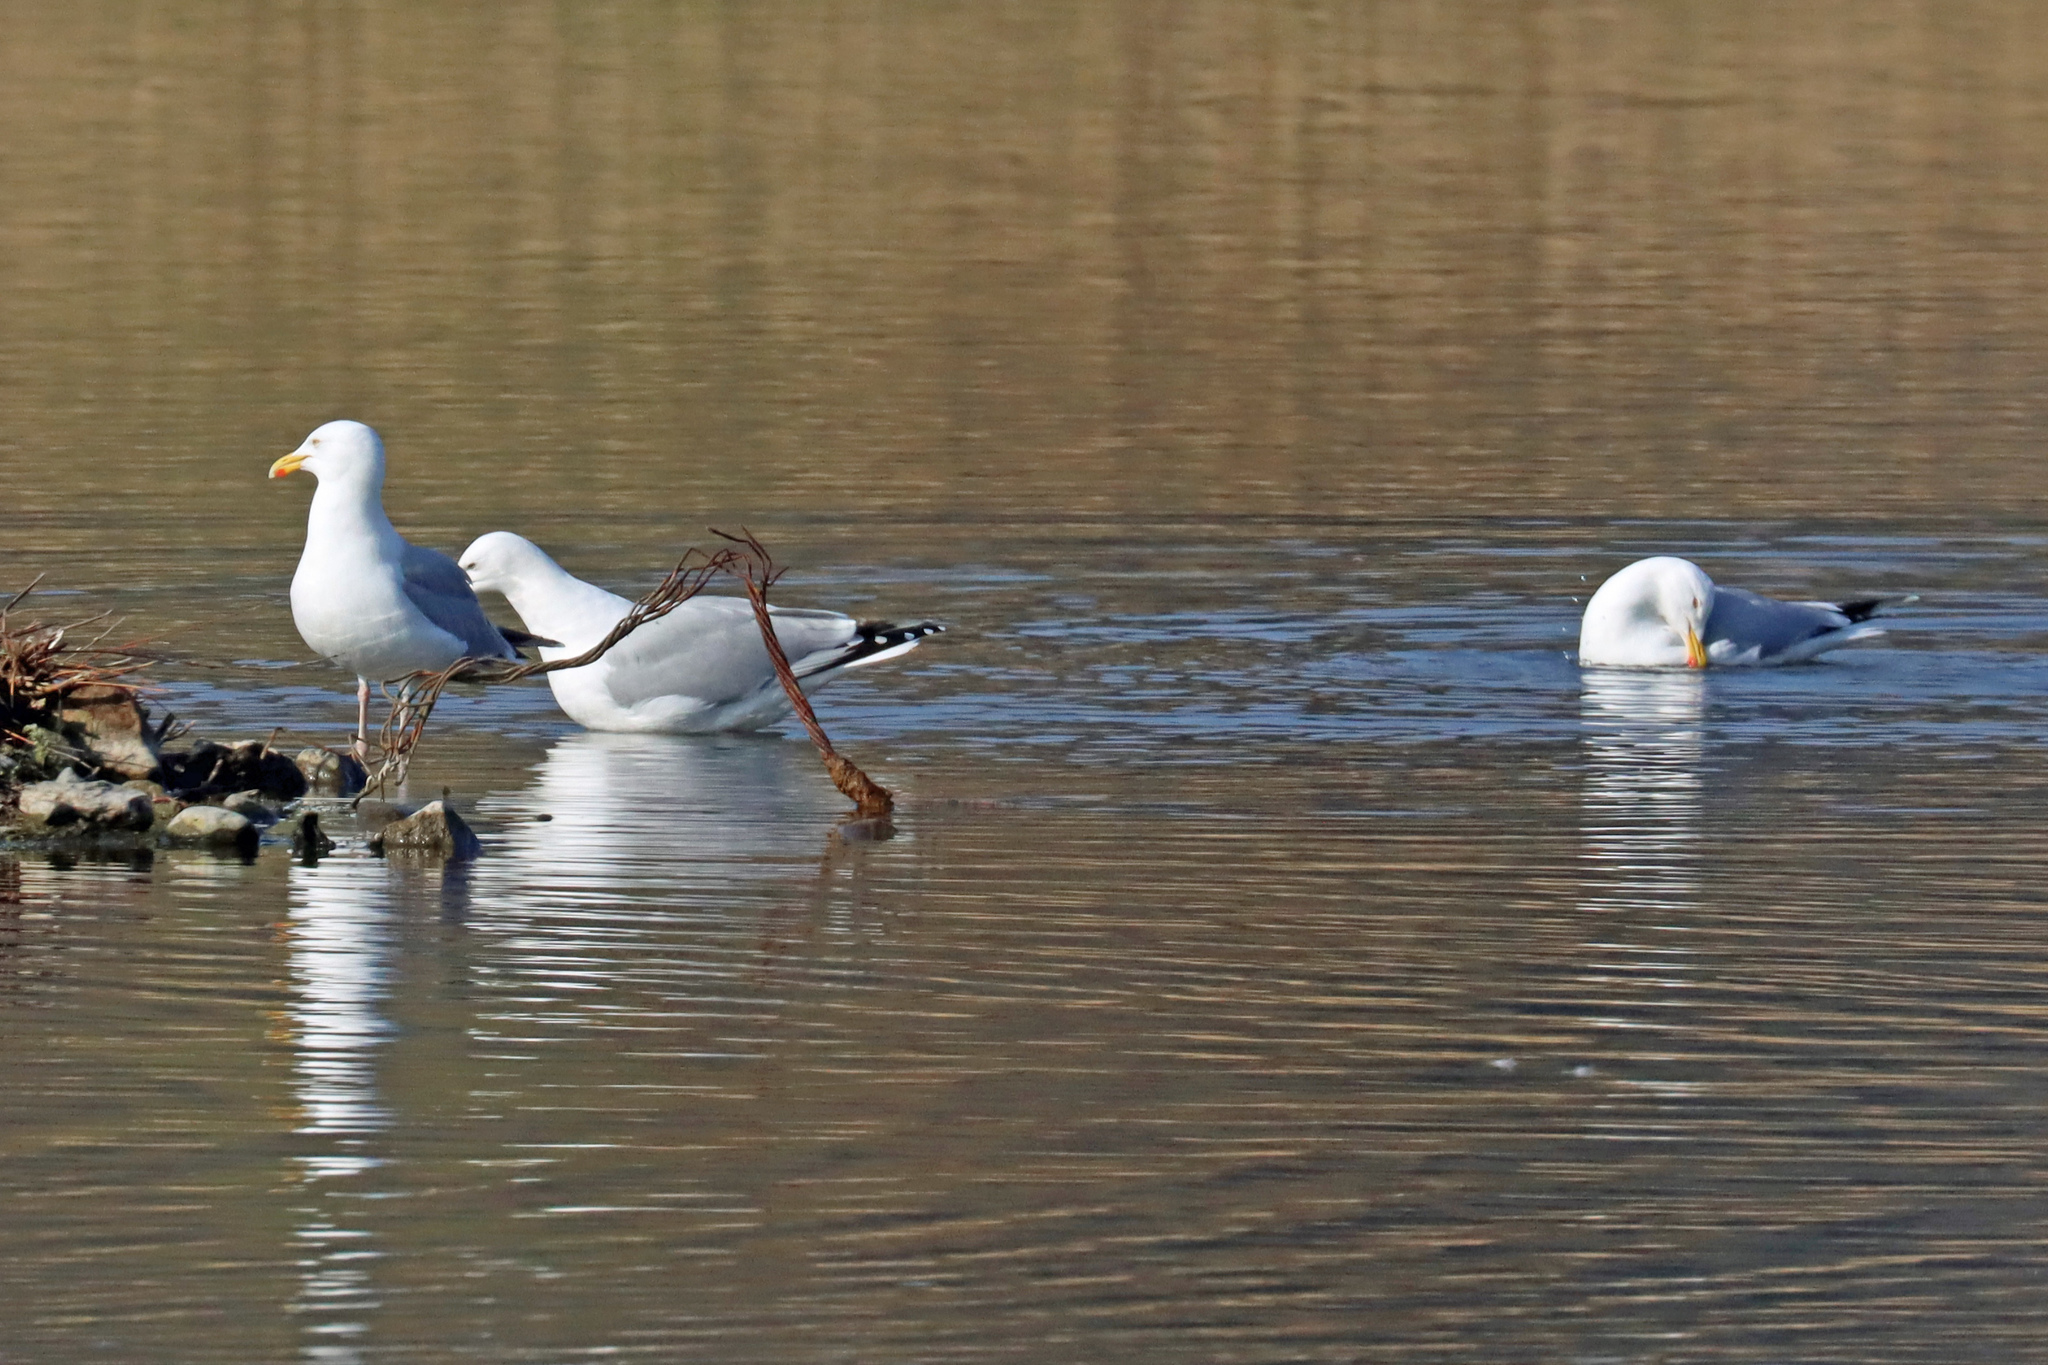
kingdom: Animalia
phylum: Chordata
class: Aves
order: Charadriiformes
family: Laridae
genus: Larus
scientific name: Larus argentatus
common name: Herring gull
